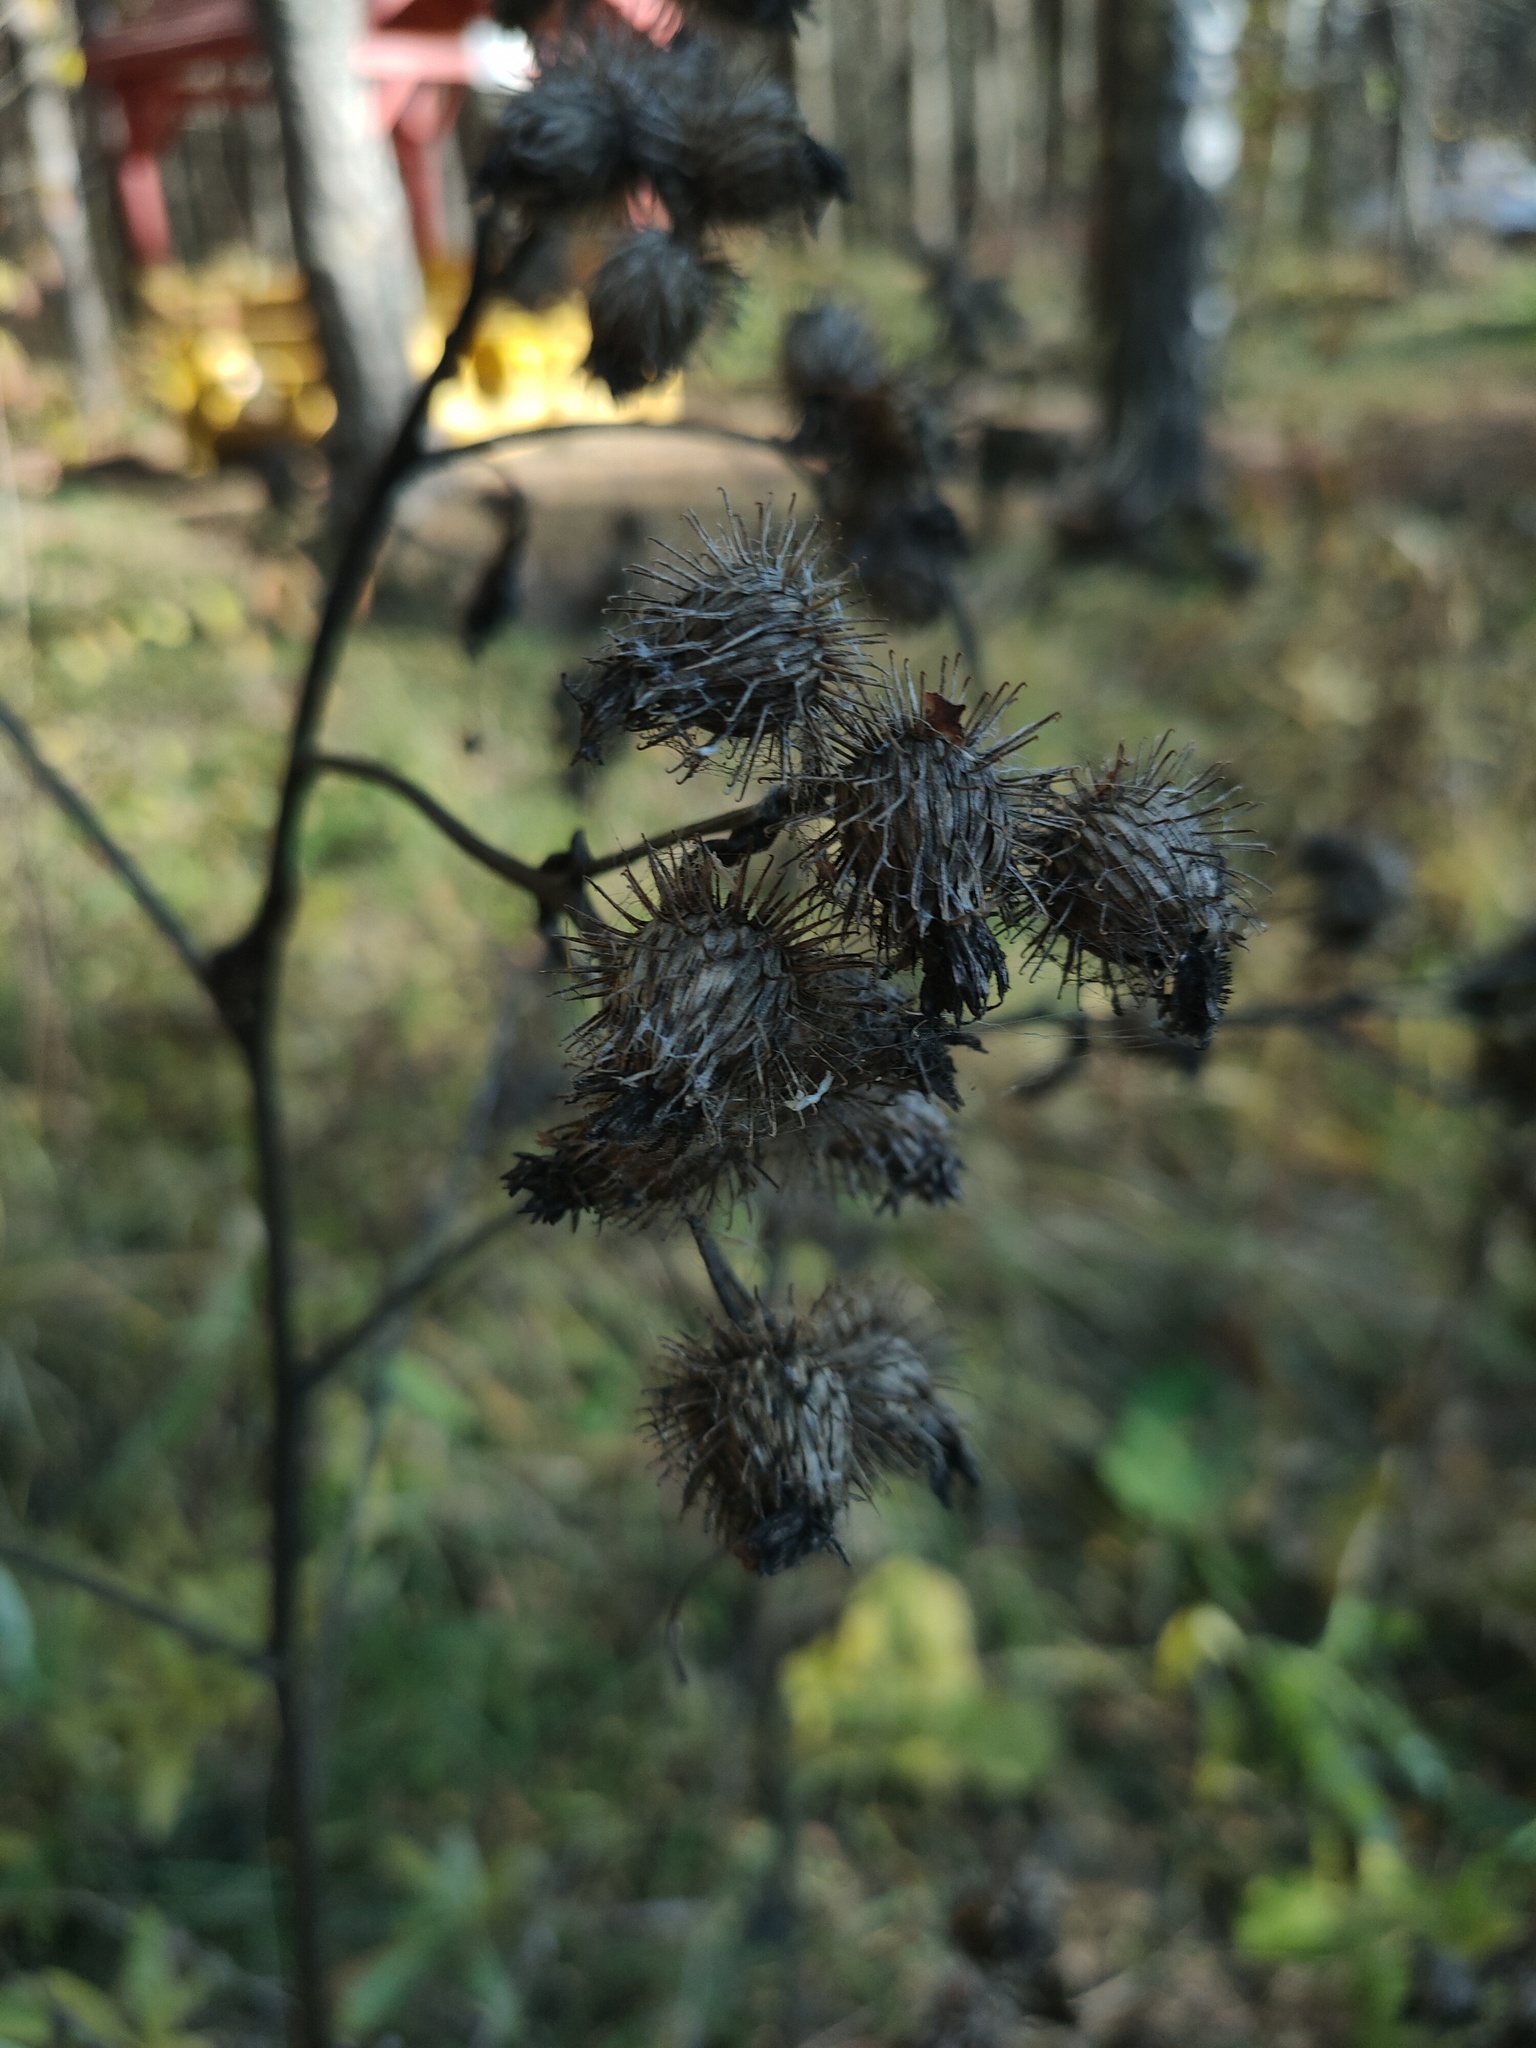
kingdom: Plantae
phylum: Tracheophyta
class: Magnoliopsida
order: Asterales
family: Asteraceae
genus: Arctium
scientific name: Arctium tomentosum
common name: Woolly burdock
